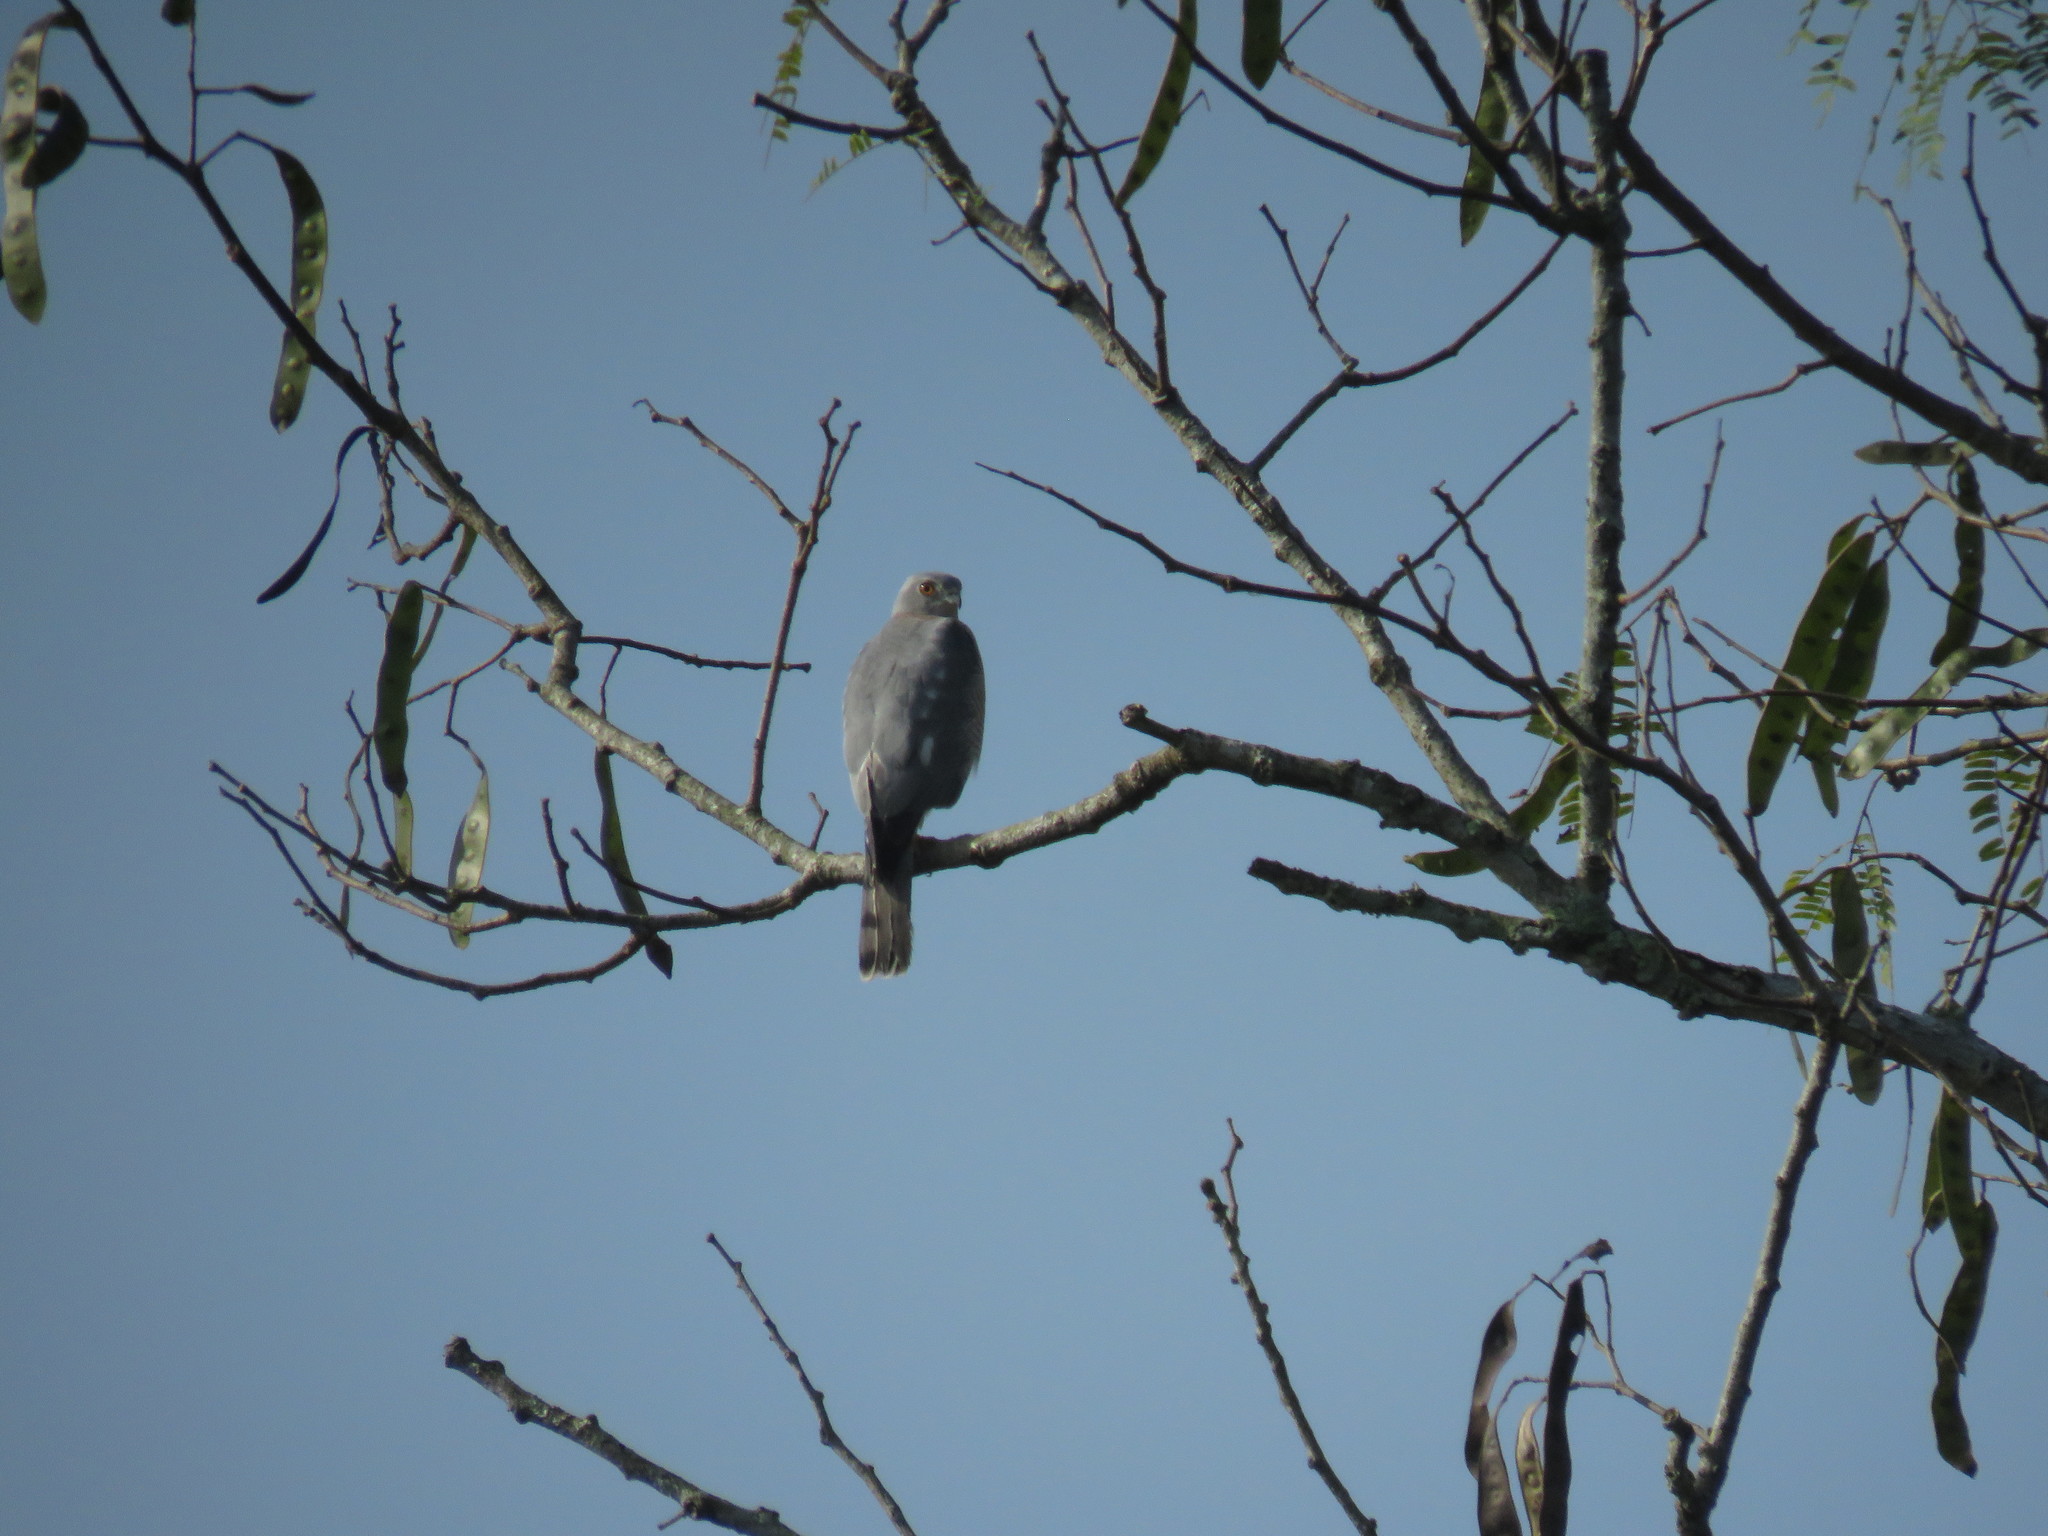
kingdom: Animalia
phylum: Chordata
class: Aves
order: Accipitriformes
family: Accipitridae
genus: Accipiter
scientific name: Accipiter badius
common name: Shikra
